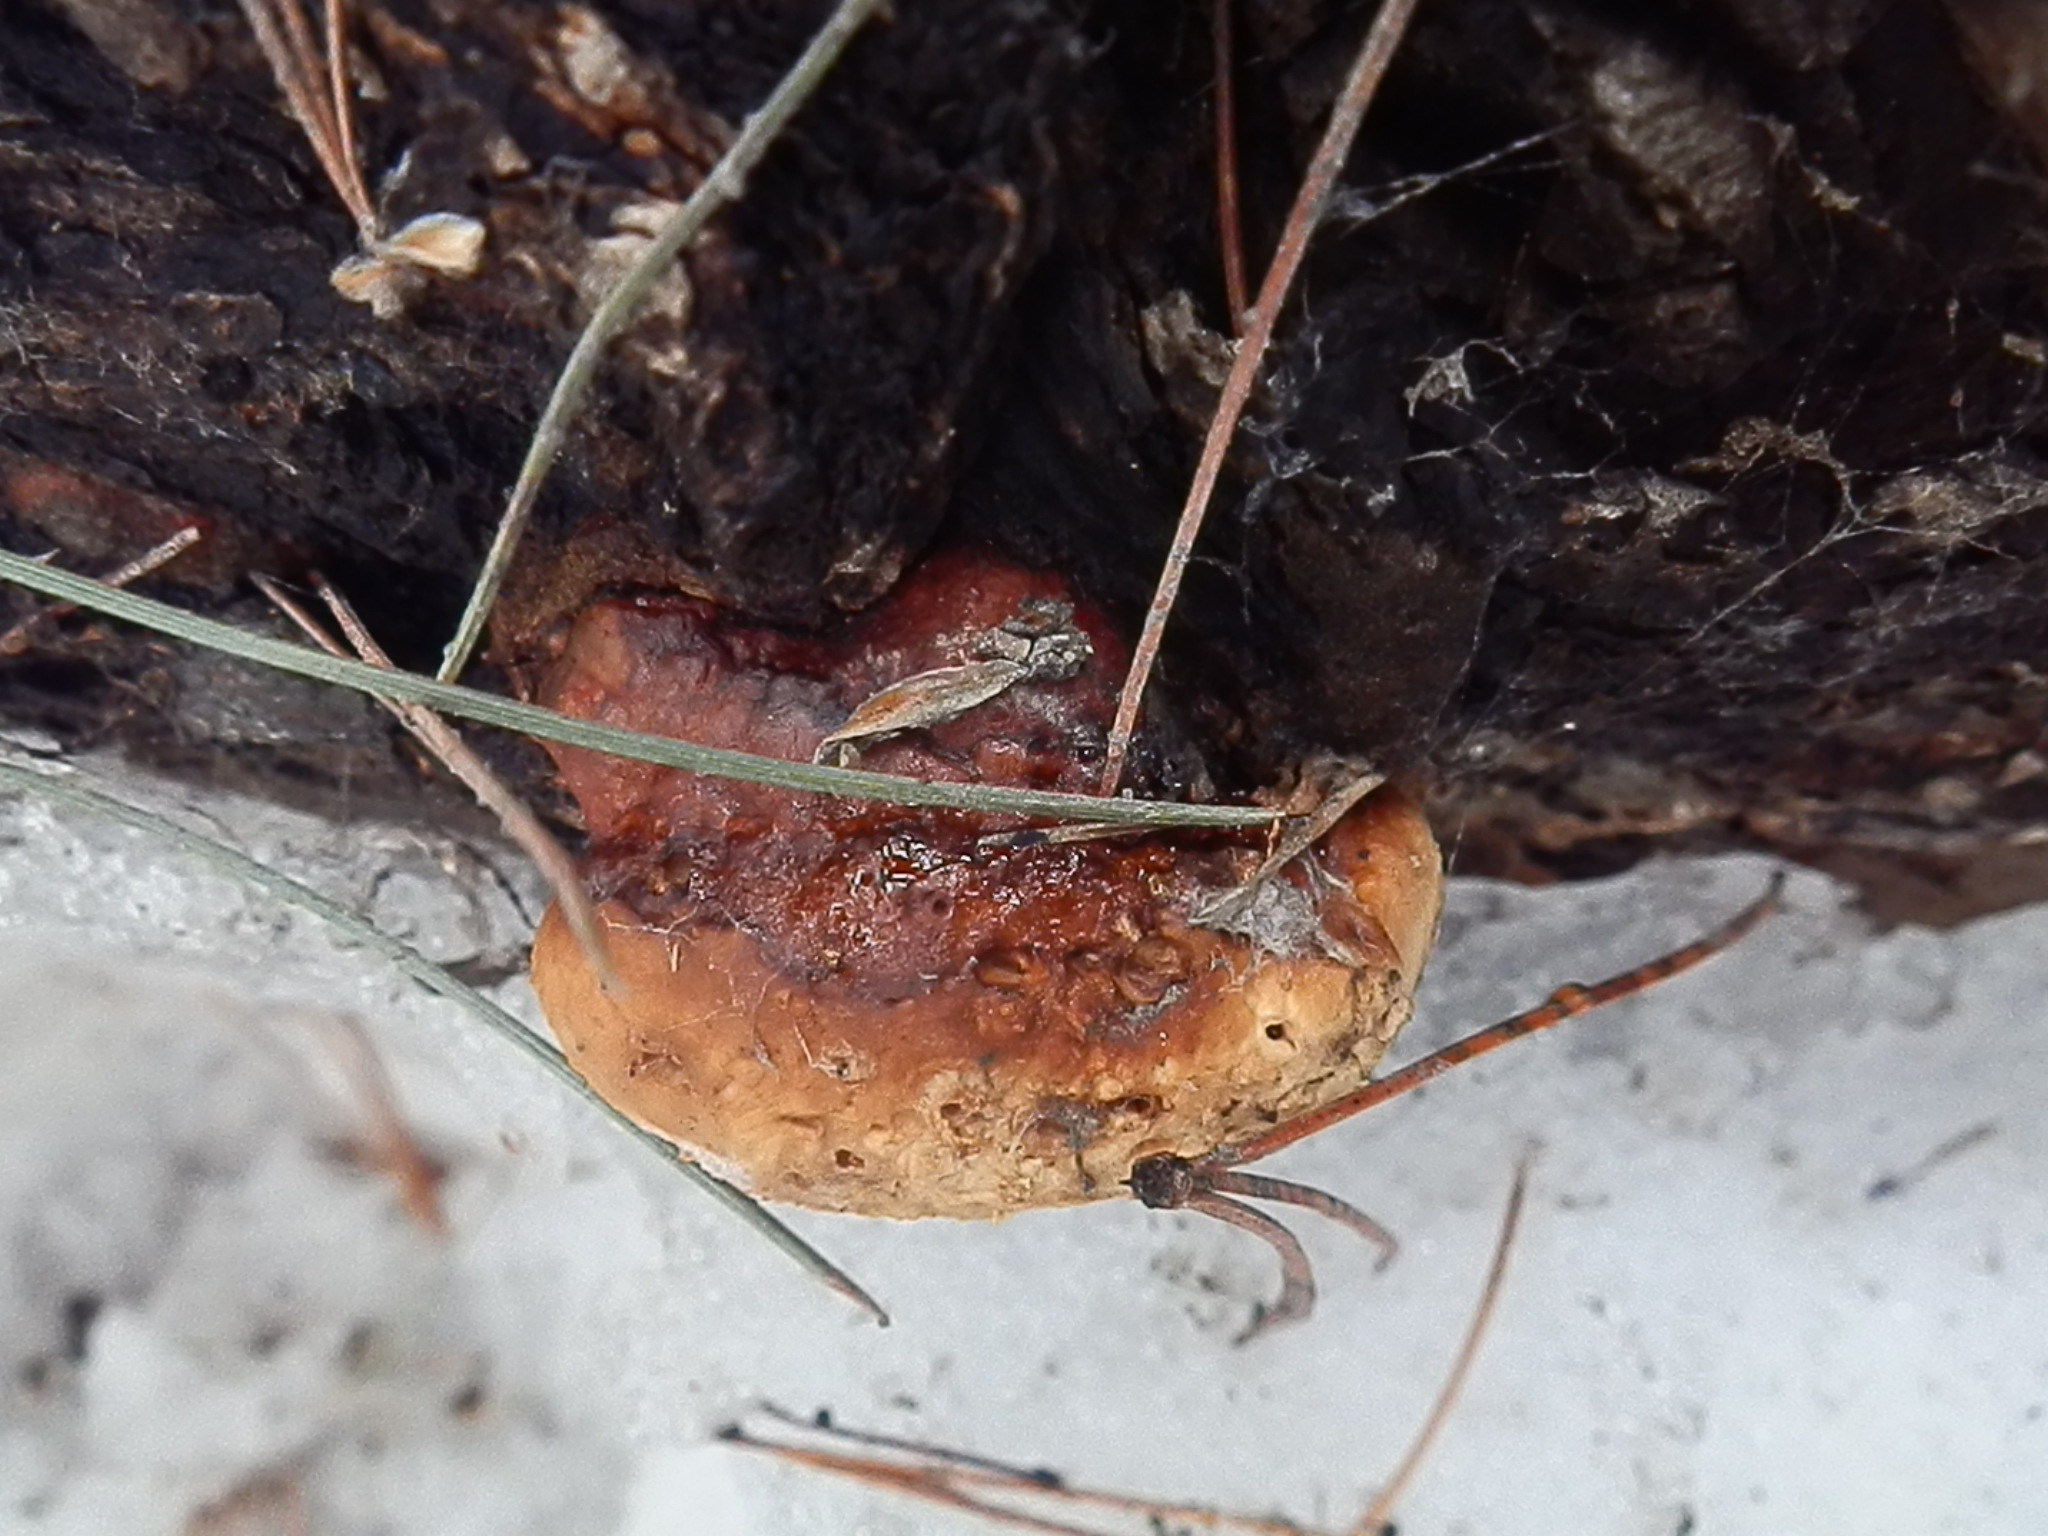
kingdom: Fungi
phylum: Basidiomycota
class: Agaricomycetes
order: Polyporales
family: Fomitopsidaceae
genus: Fomitopsis
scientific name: Fomitopsis schrenkii
